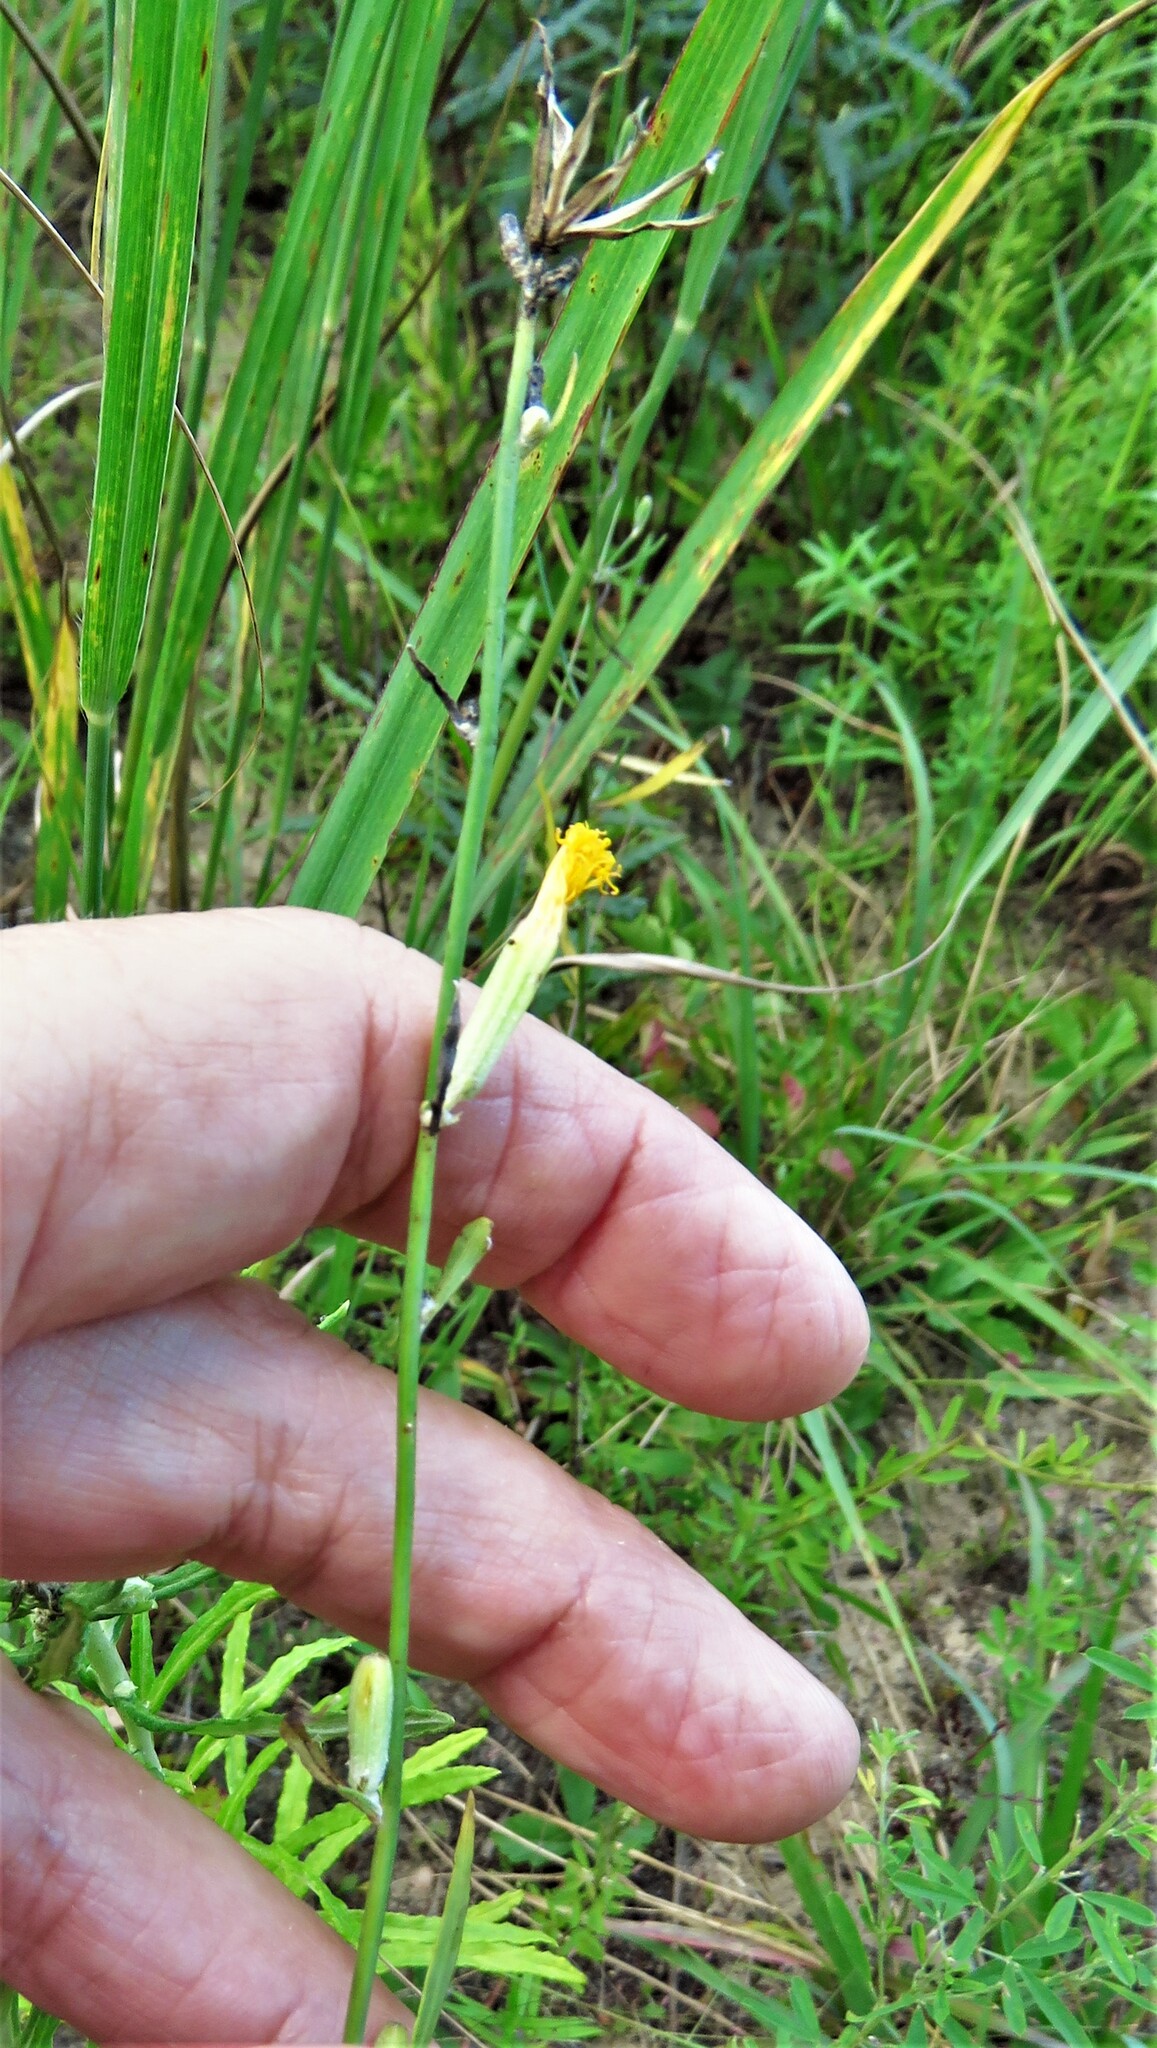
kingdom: Plantae
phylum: Tracheophyta
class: Magnoliopsida
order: Asterales
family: Asteraceae
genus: Chondrilla
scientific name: Chondrilla juncea
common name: Skeleton weed
